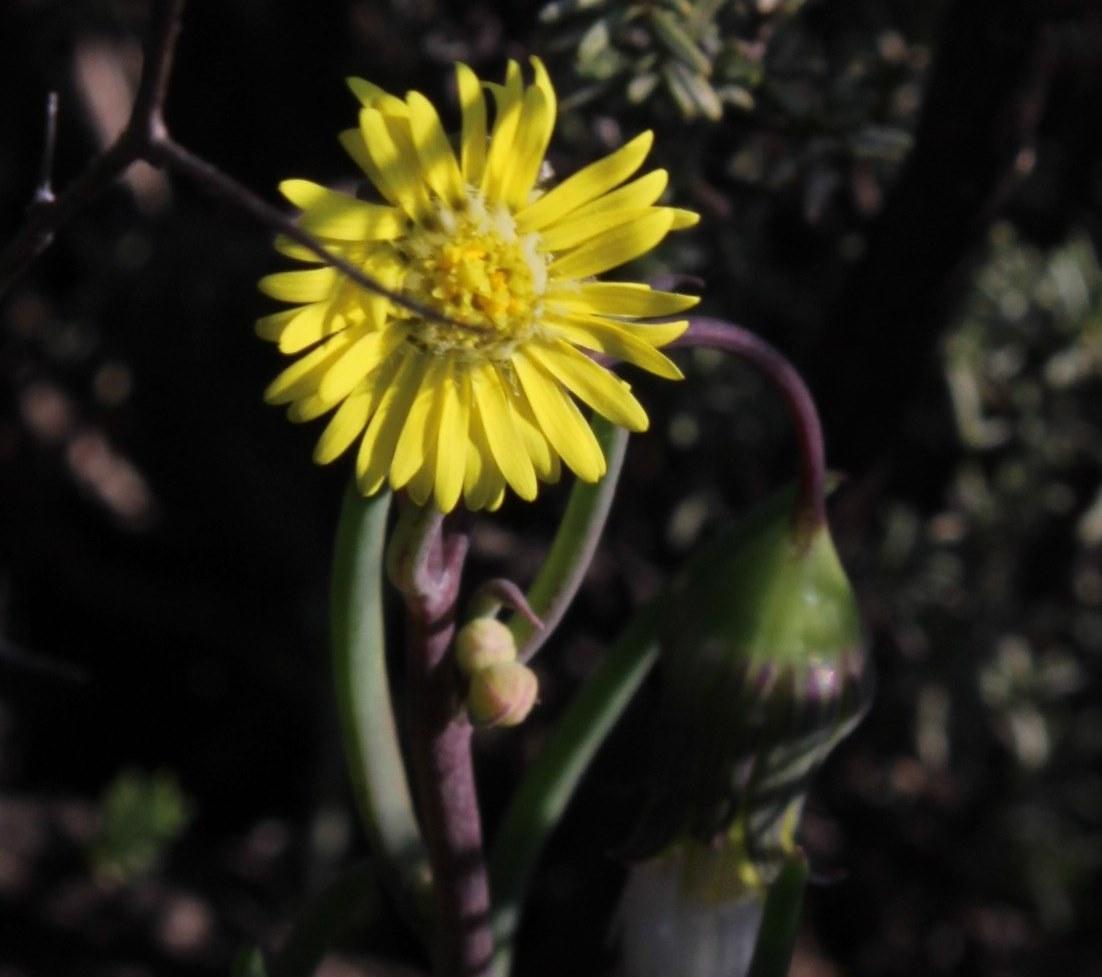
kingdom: Plantae
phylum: Tracheophyta
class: Magnoliopsida
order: Asterales
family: Asteraceae
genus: Crassothonna
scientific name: Crassothonna protecta
